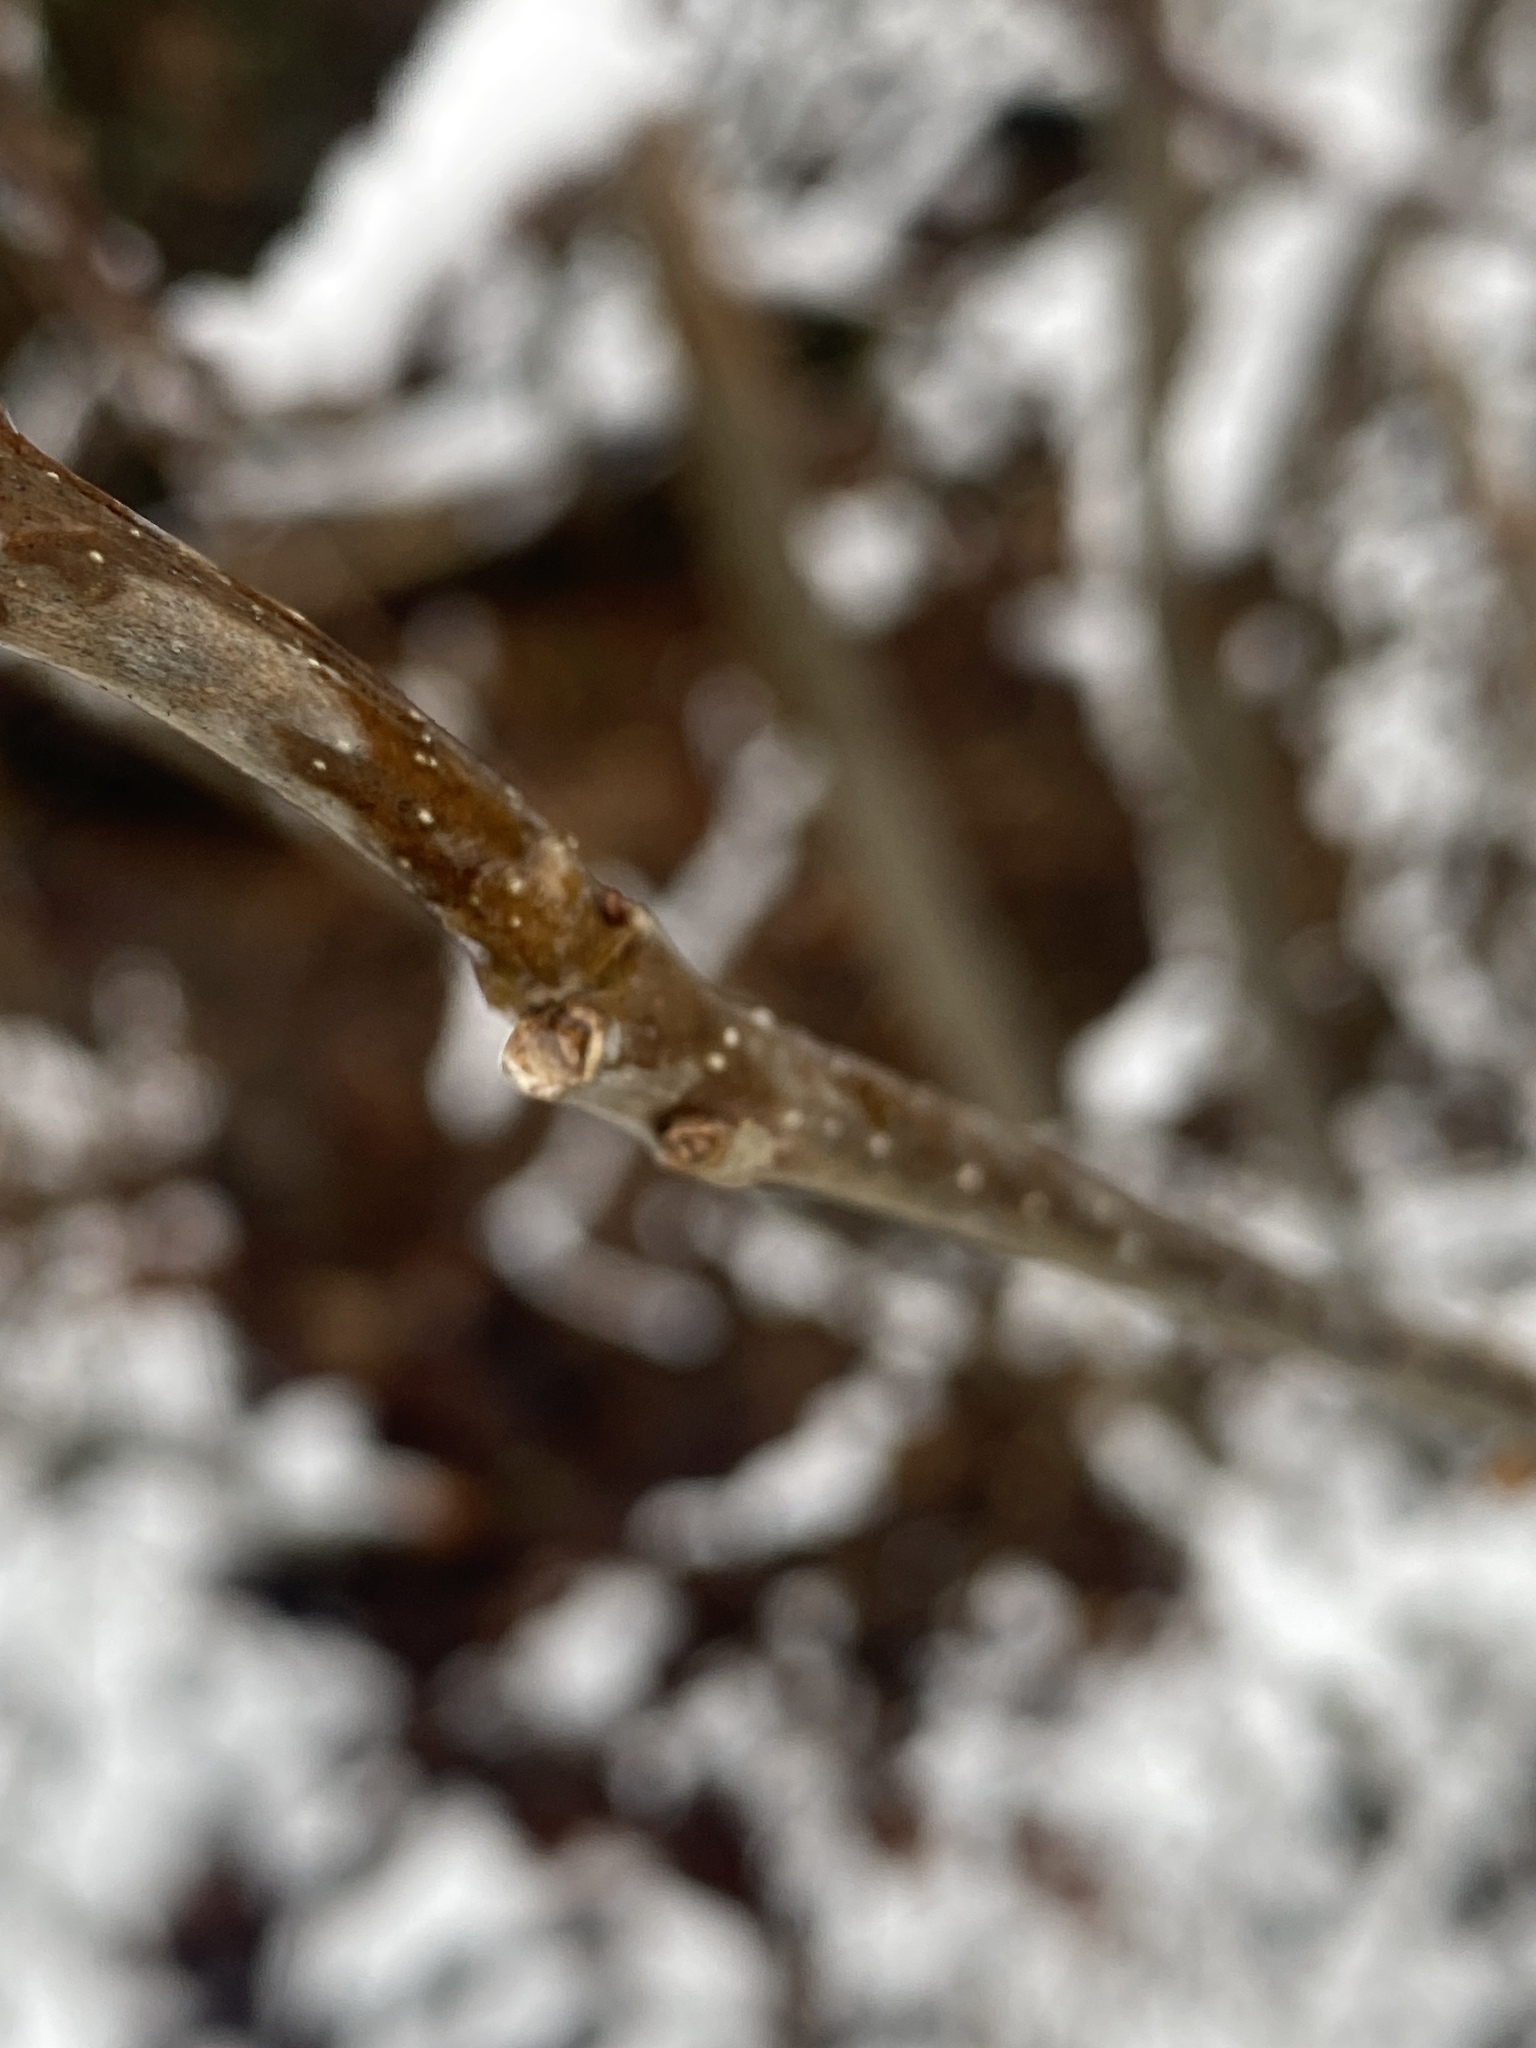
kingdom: Plantae
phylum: Tracheophyta
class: Magnoliopsida
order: Lamiales
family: Oleaceae
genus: Fraxinus
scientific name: Fraxinus pennsylvanica
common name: Green ash
